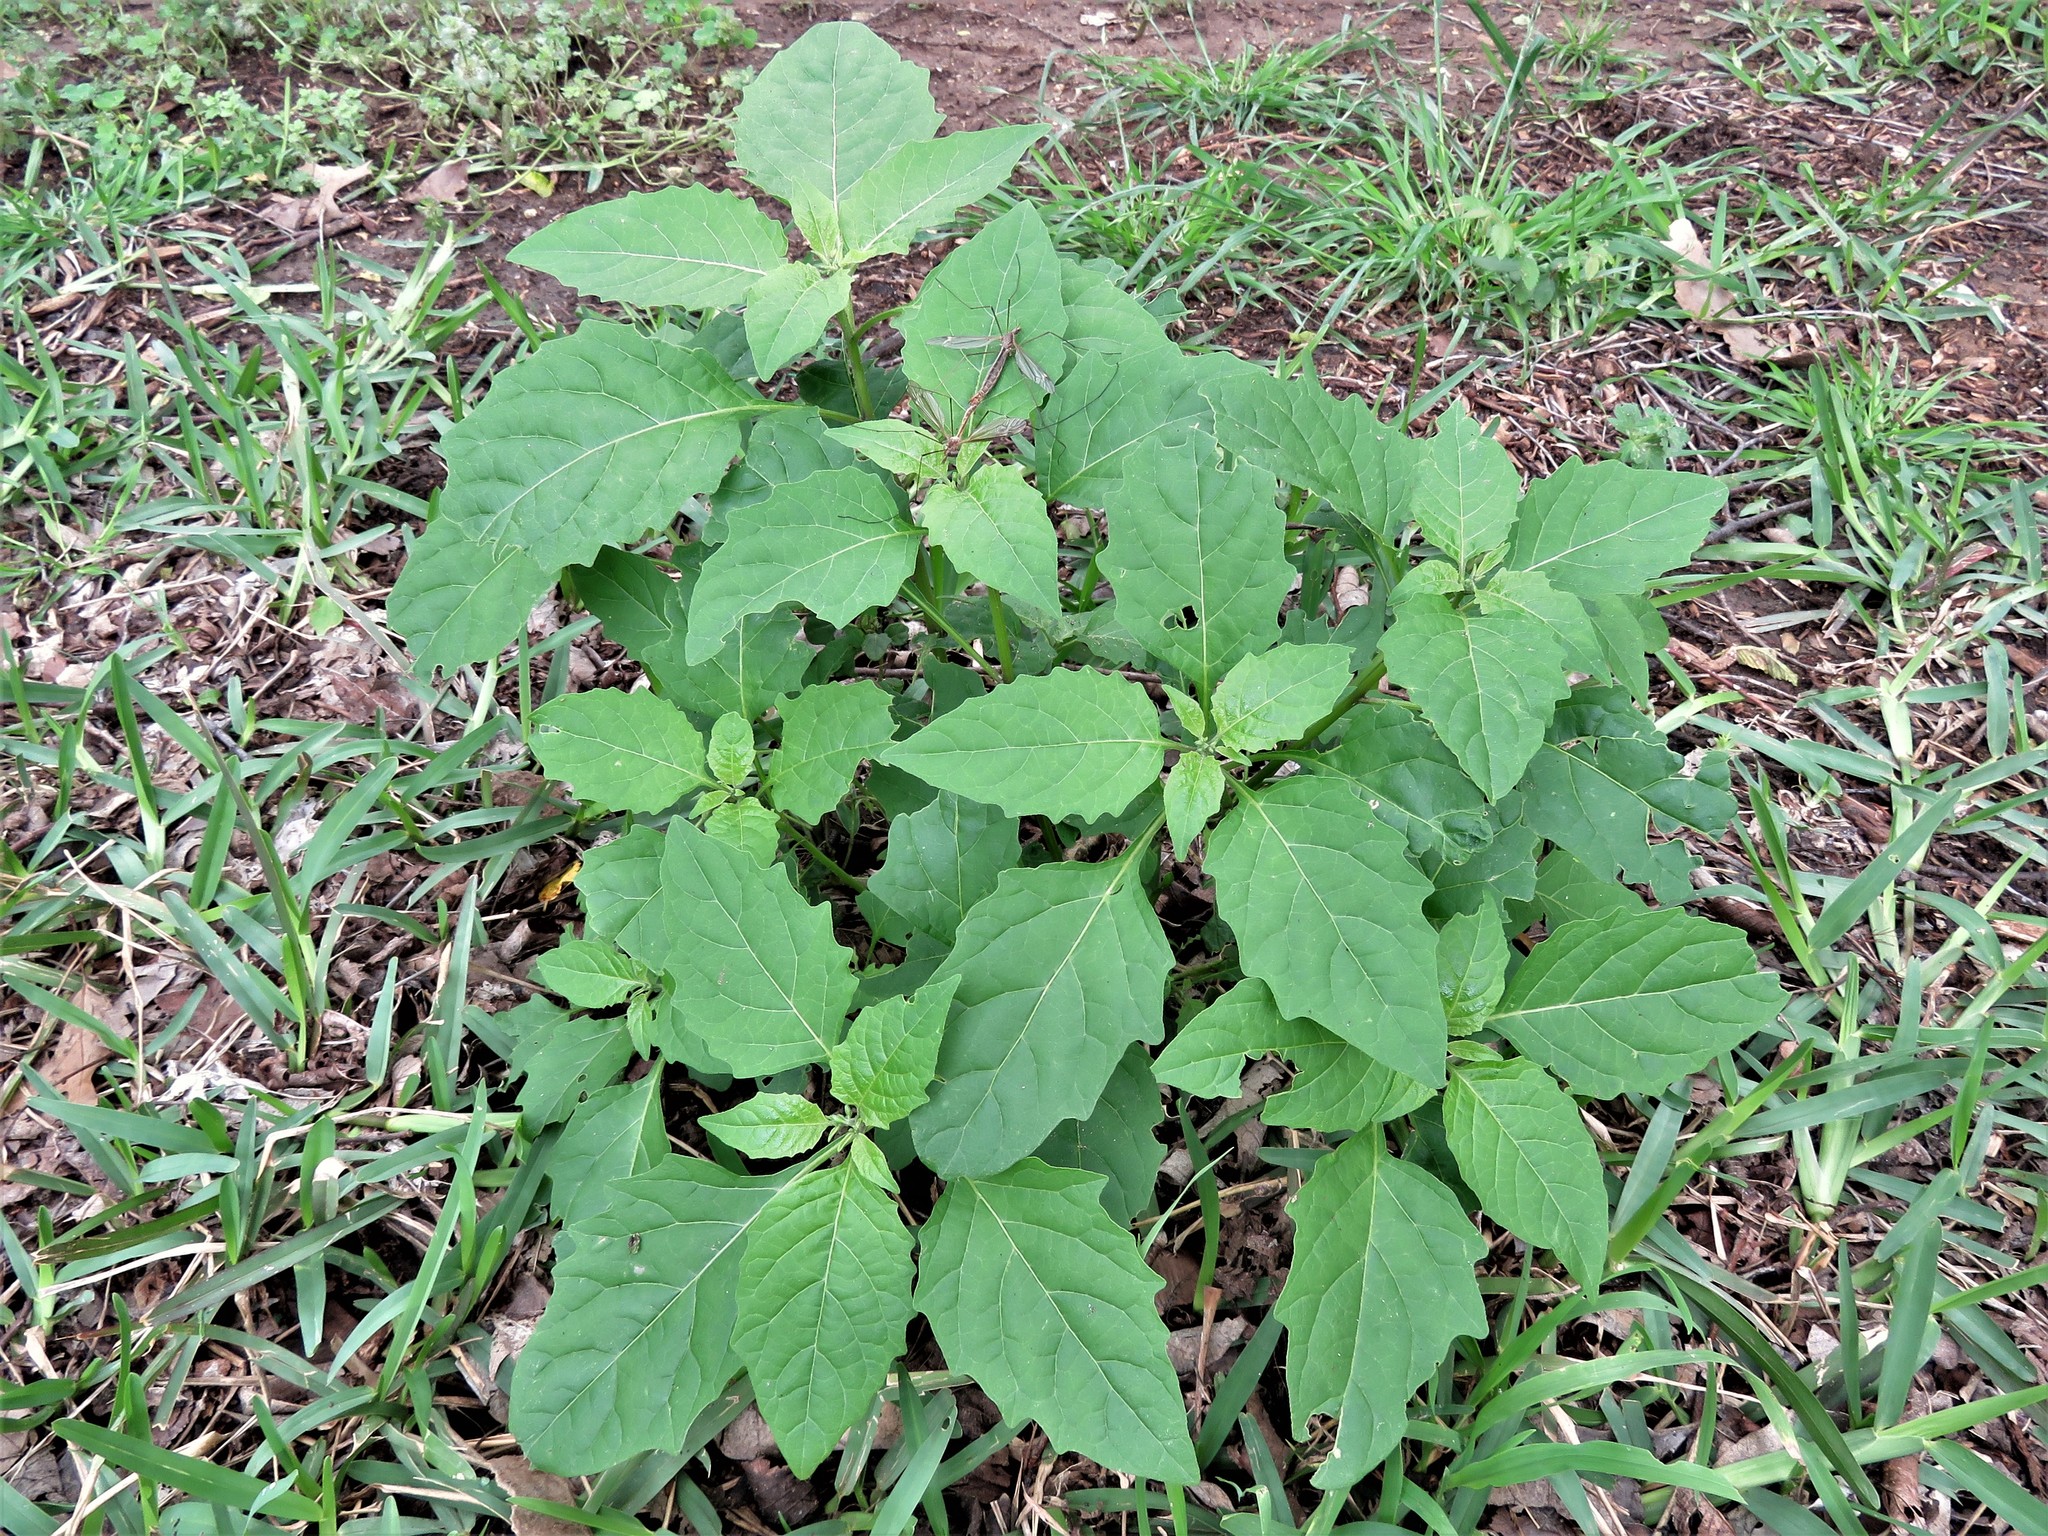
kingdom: Plantae
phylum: Tracheophyta
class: Magnoliopsida
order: Solanales
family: Solanaceae
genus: Solanum
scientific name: Solanum emulans
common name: Eastern black nightshade
